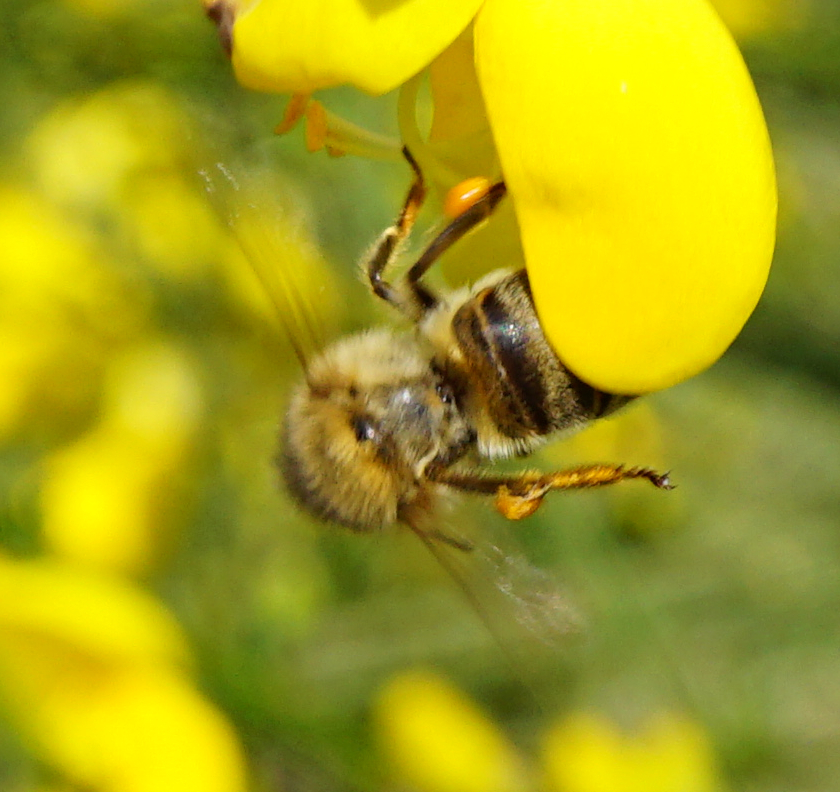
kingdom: Animalia
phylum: Arthropoda
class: Insecta
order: Hymenoptera
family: Apidae
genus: Apis
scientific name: Apis mellifera
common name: Honey bee
